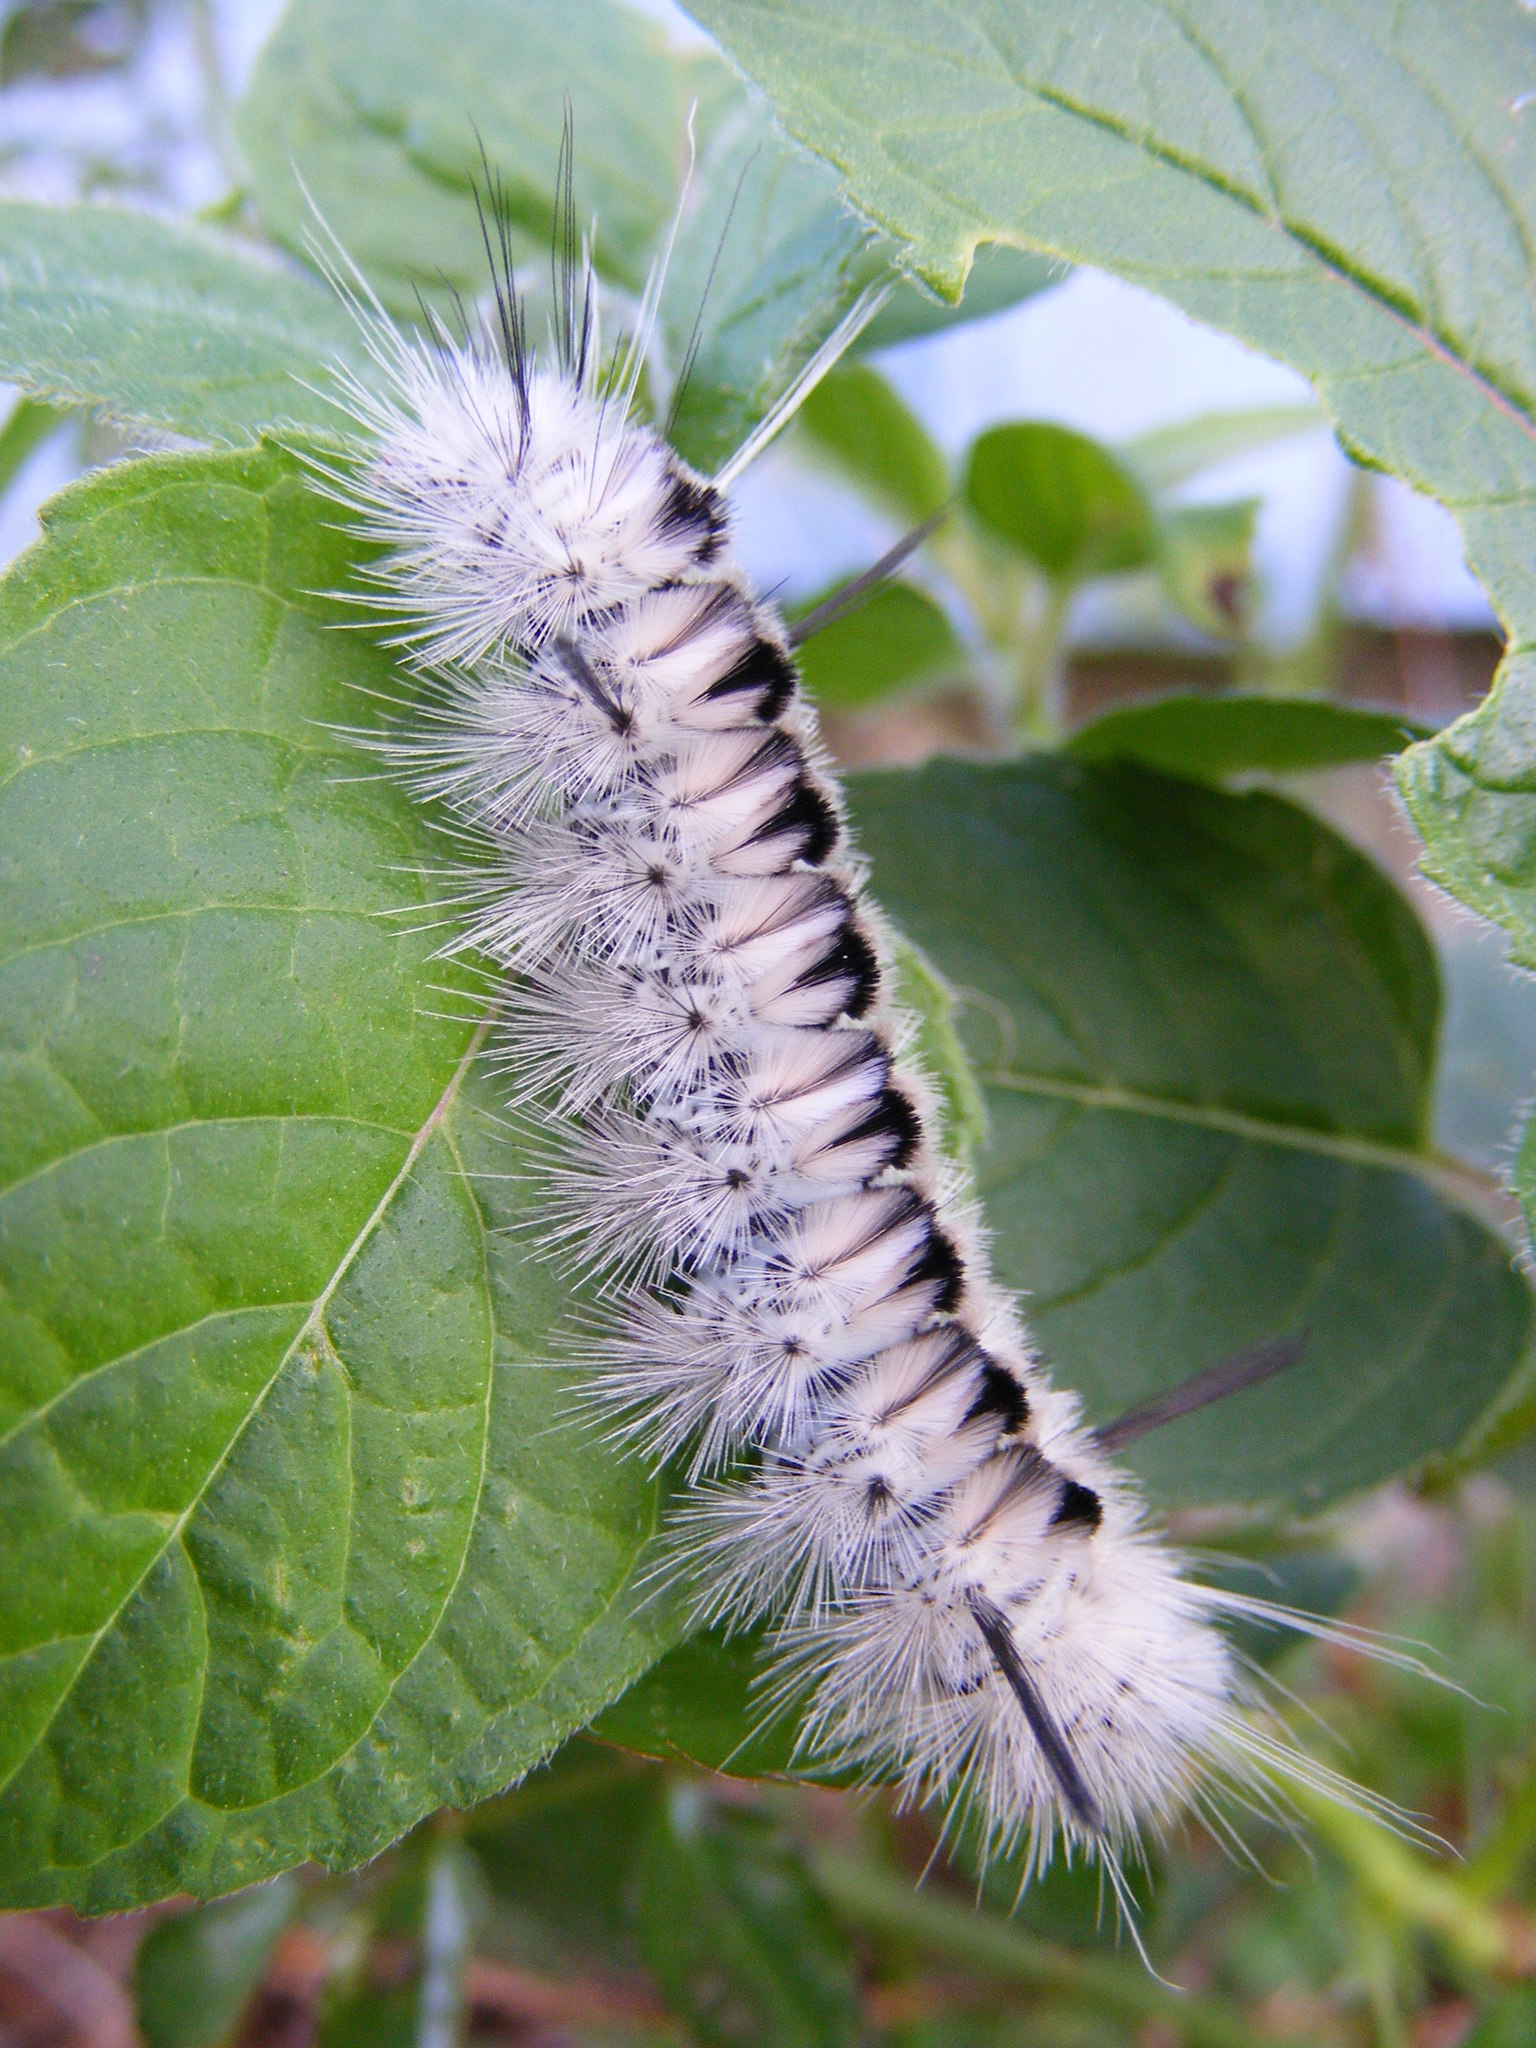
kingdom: Animalia
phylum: Arthropoda
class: Insecta
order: Lepidoptera
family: Erebidae
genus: Lophocampa
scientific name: Lophocampa caryae
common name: Hickory tussock moth
